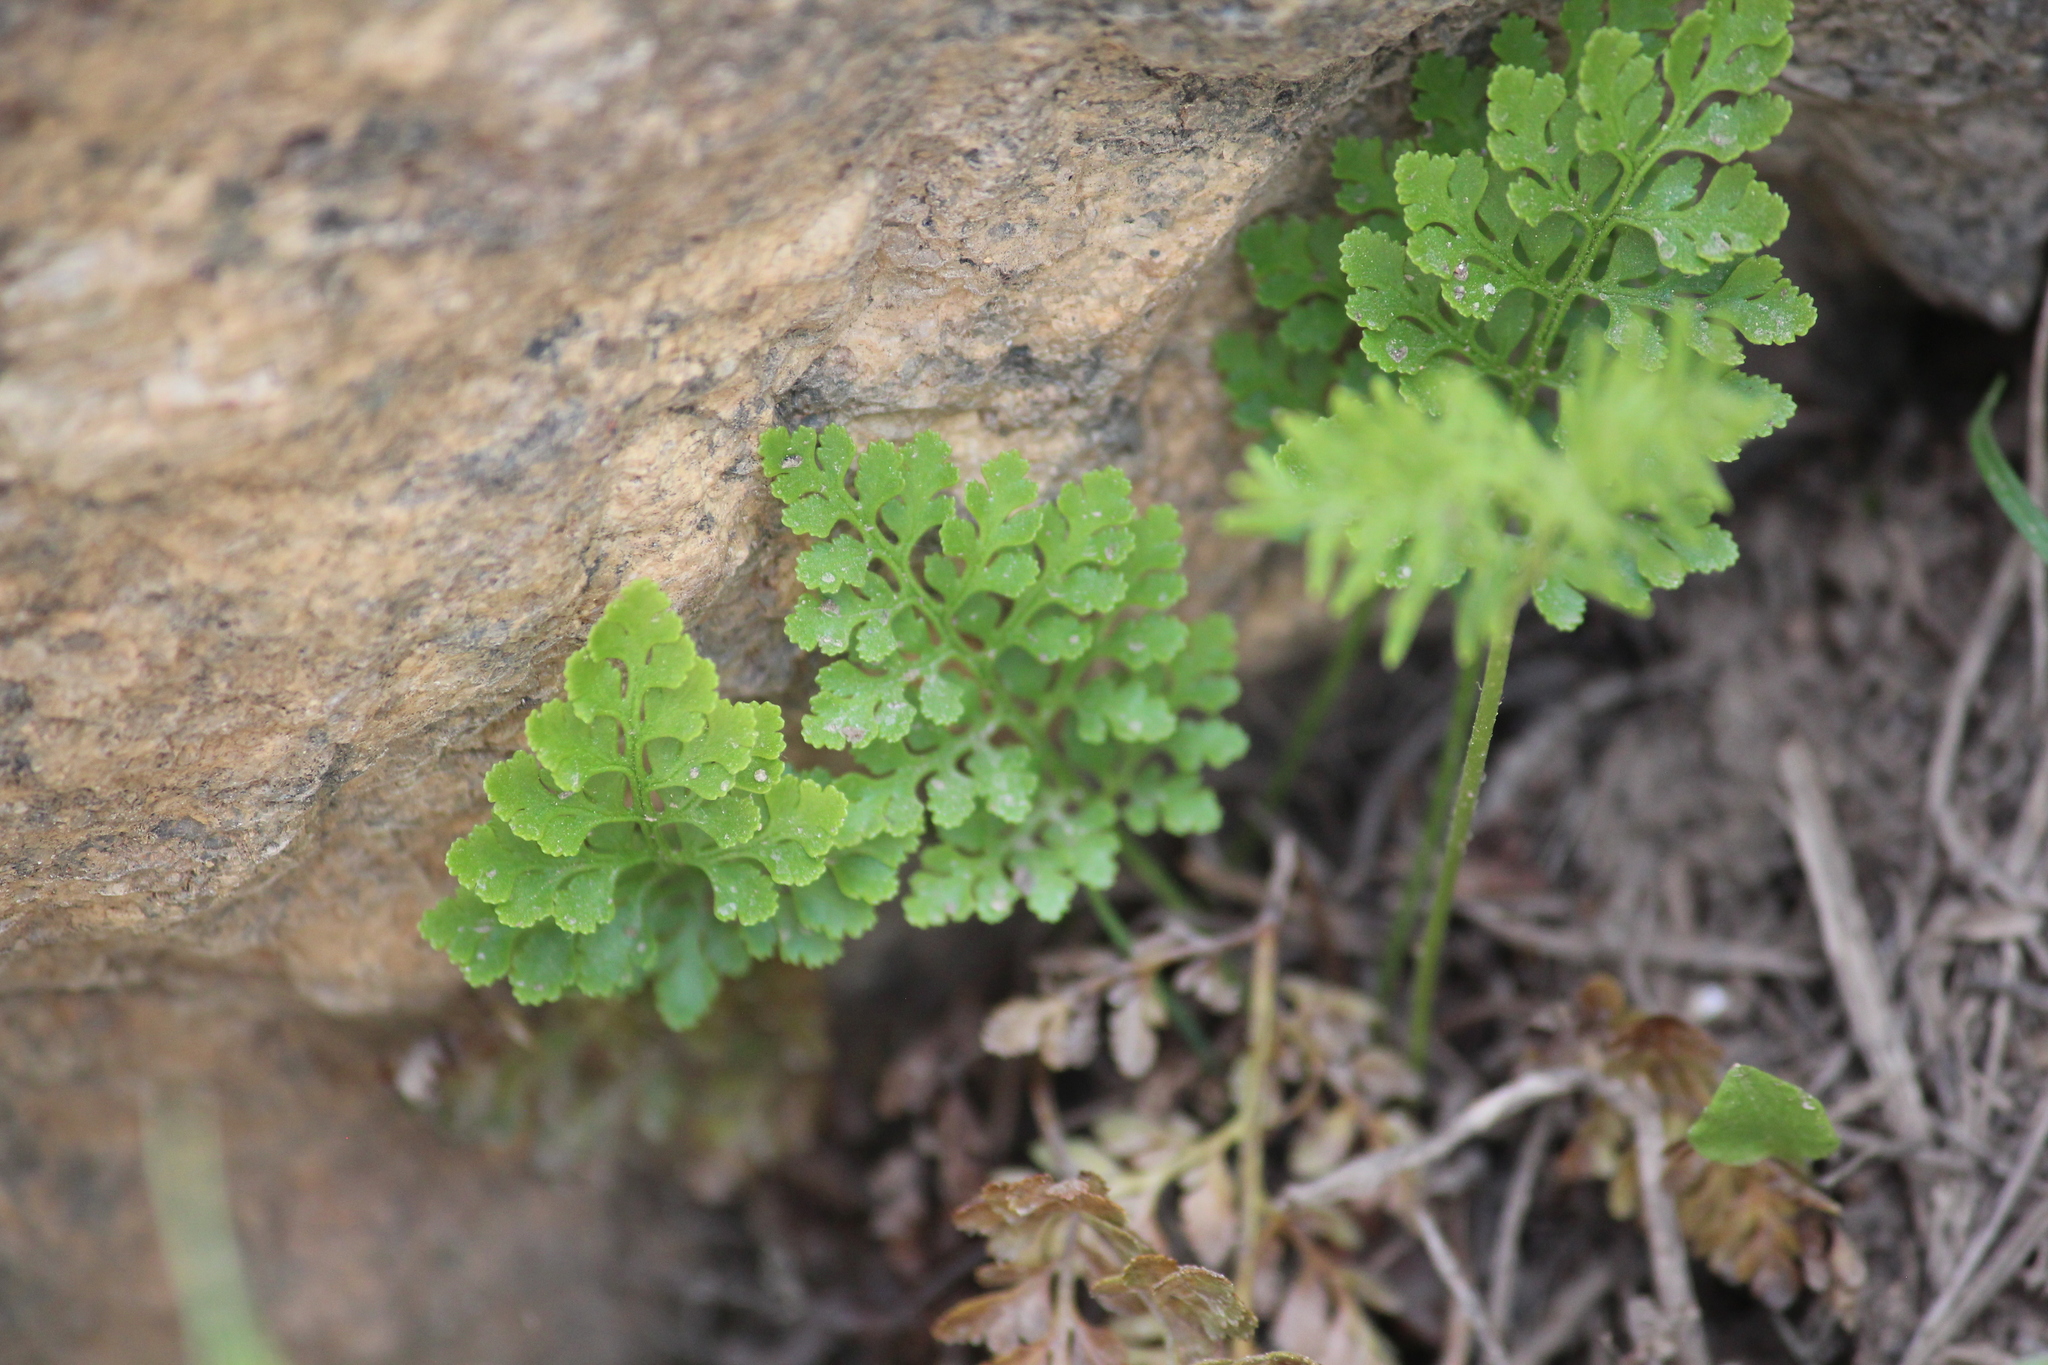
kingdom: Plantae
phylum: Tracheophyta
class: Polypodiopsida
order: Polypodiales
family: Pteridaceae
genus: Cryptogramma
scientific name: Cryptogramma acrostichoides
